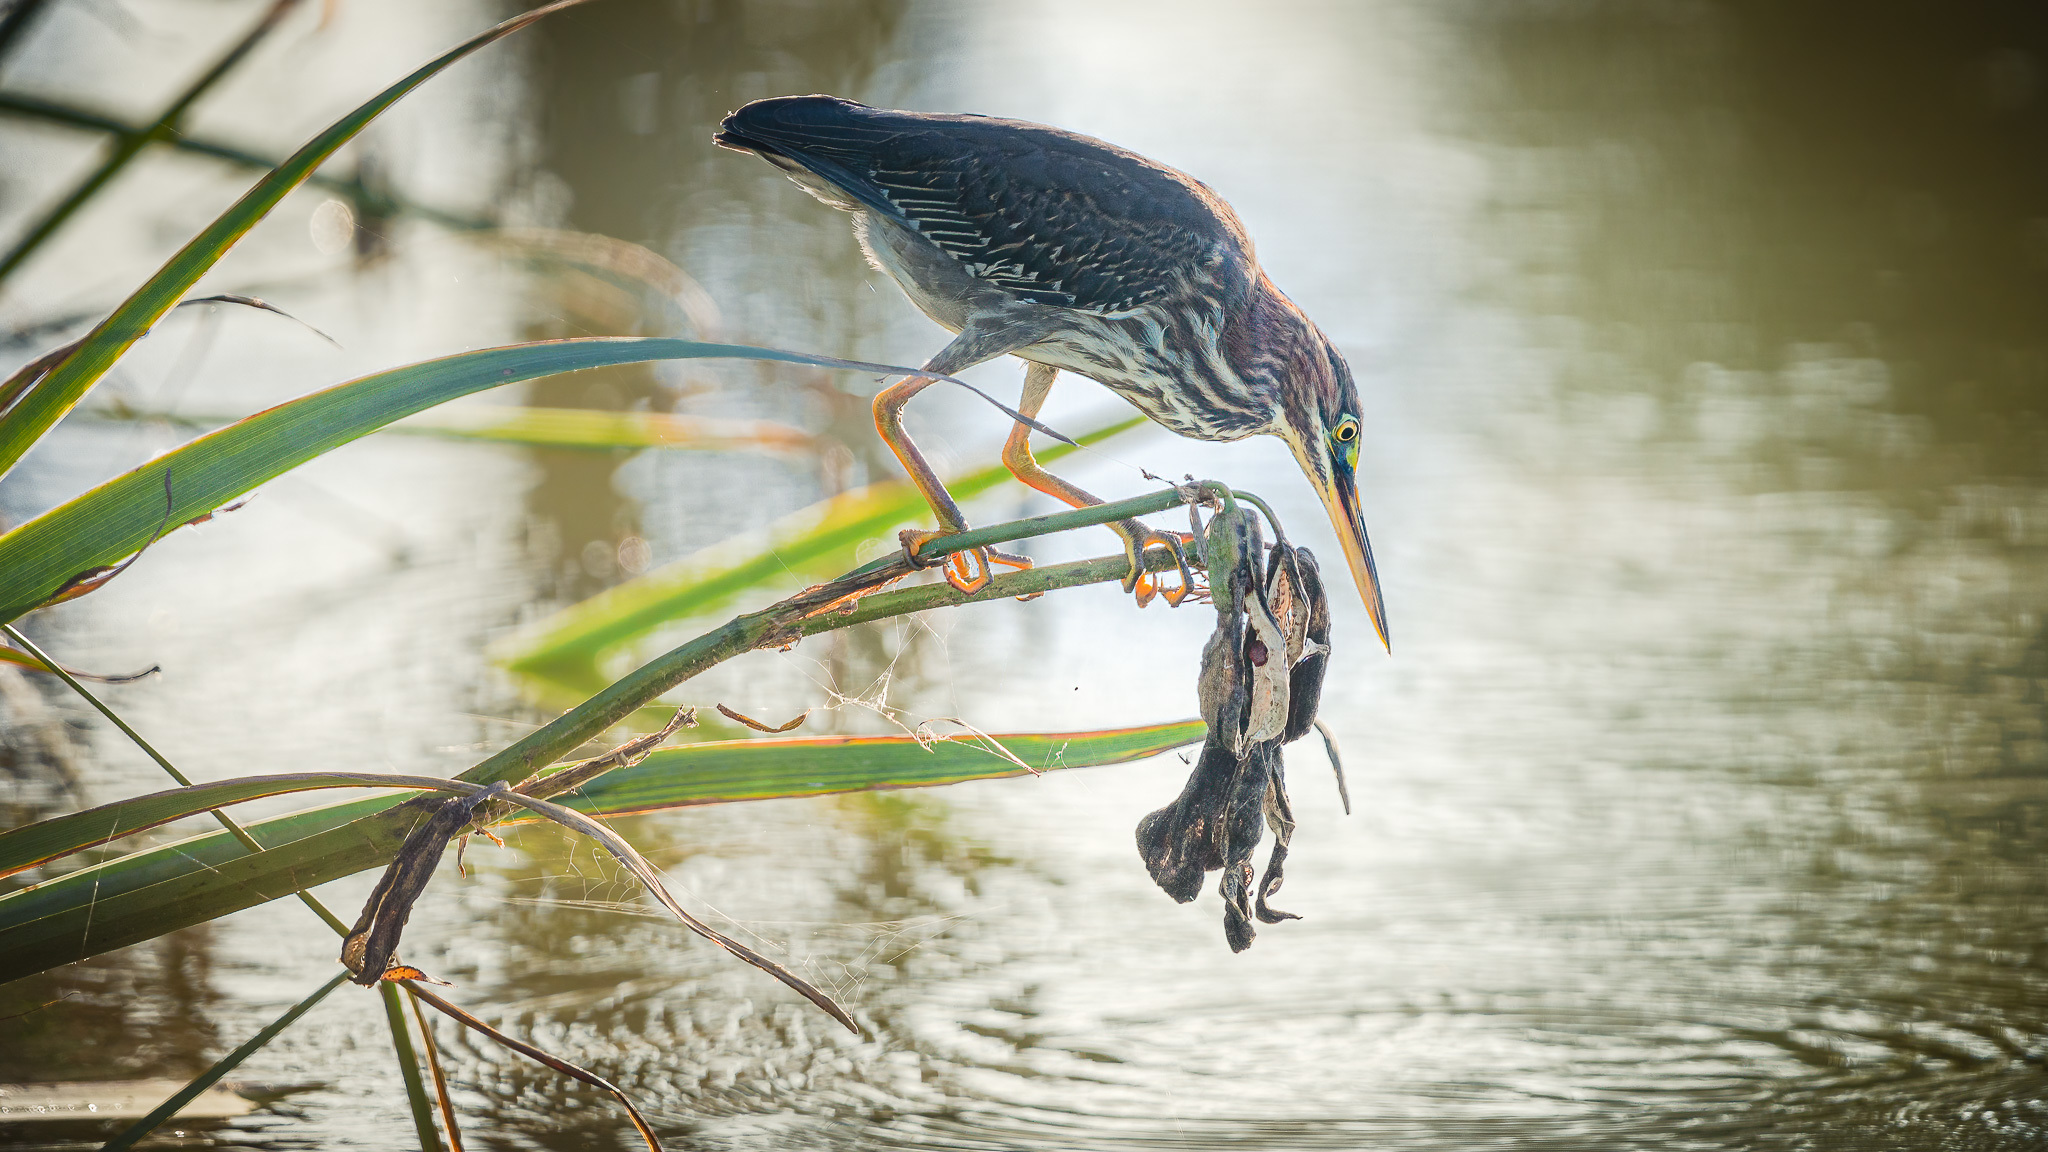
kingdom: Animalia
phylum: Chordata
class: Aves
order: Pelecaniformes
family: Ardeidae
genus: Butorides
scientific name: Butorides virescens
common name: Green heron
